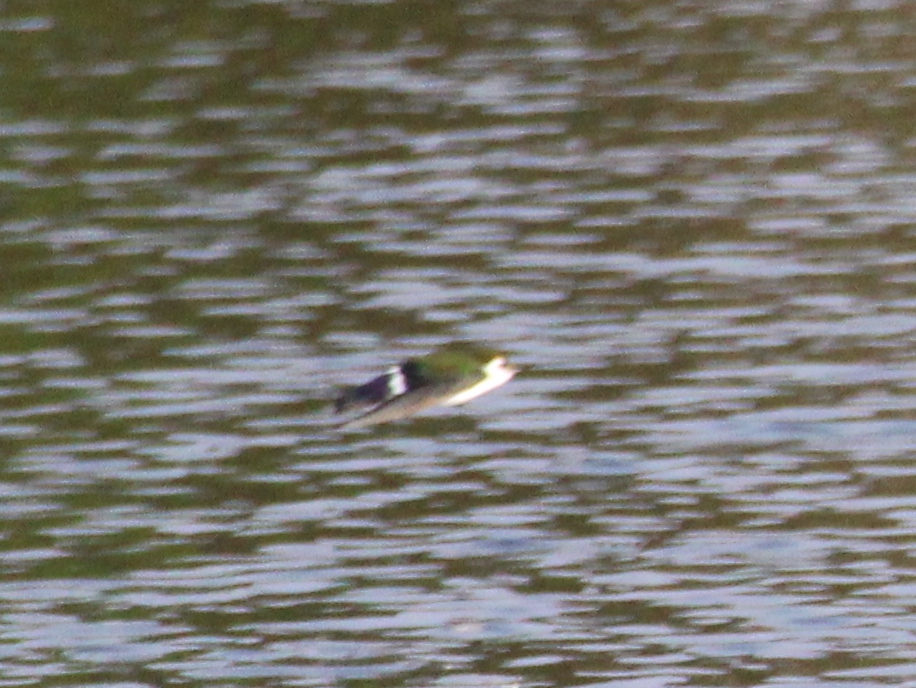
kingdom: Animalia
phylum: Chordata
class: Aves
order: Passeriformes
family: Hirundinidae
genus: Tachycineta
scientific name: Tachycineta thalassina
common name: Violet-green swallow
